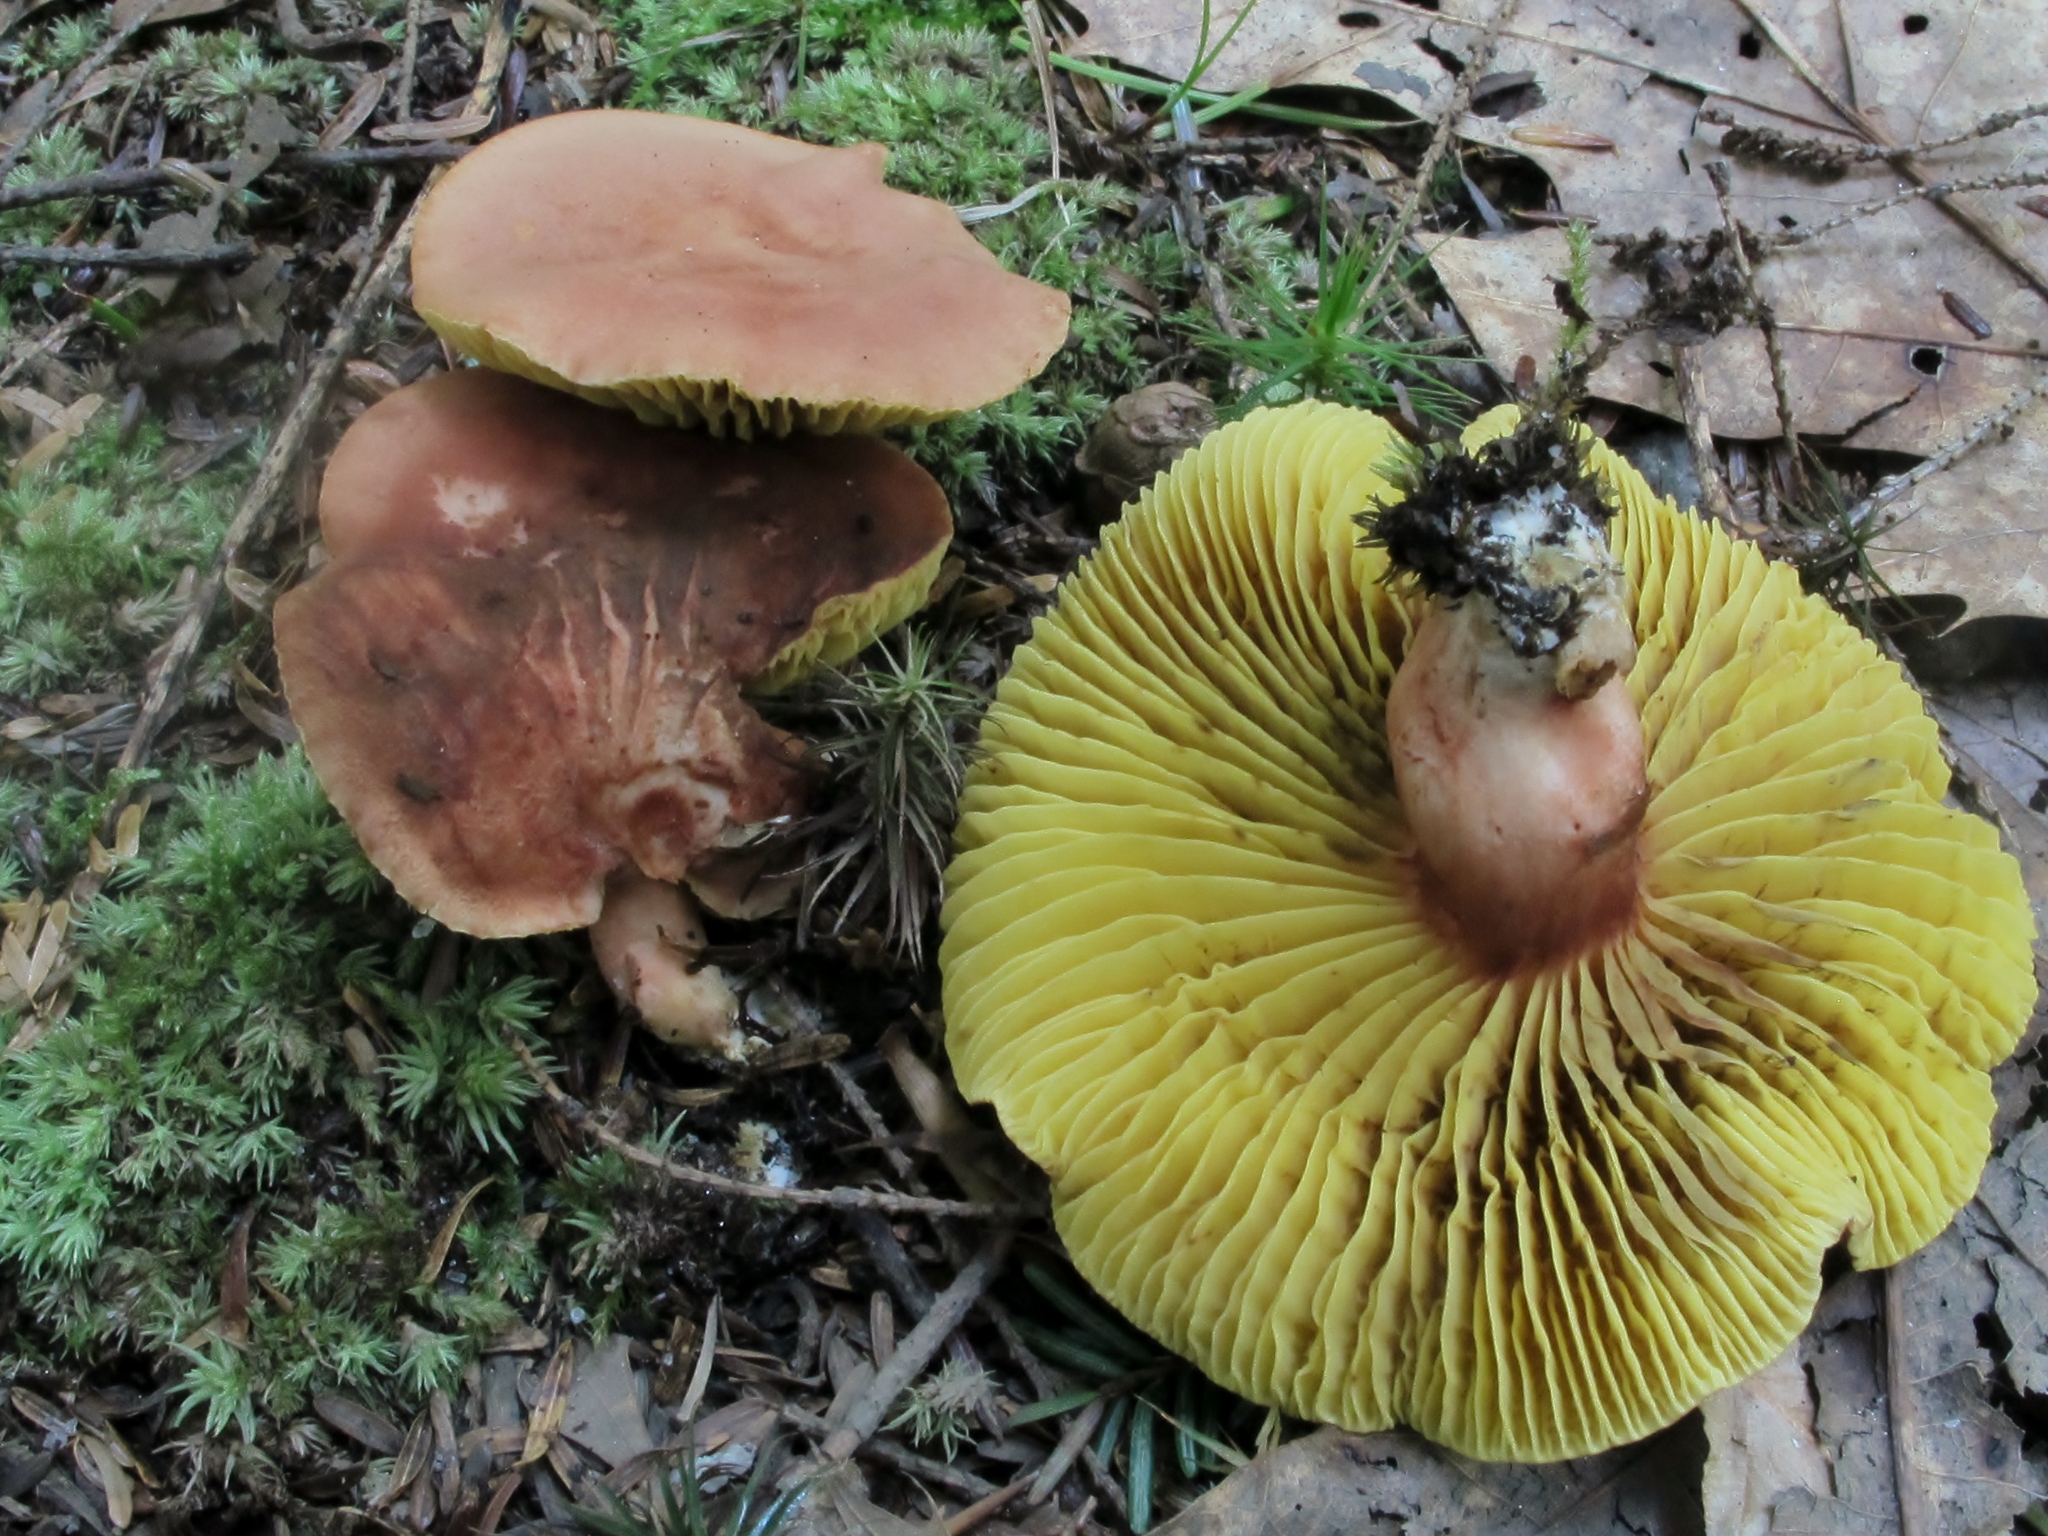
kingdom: Fungi
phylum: Basidiomycota
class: Agaricomycetes
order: Boletales
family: Boletaceae
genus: Phylloporus
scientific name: Phylloporus leucomycelinus
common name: Gilled bolete
